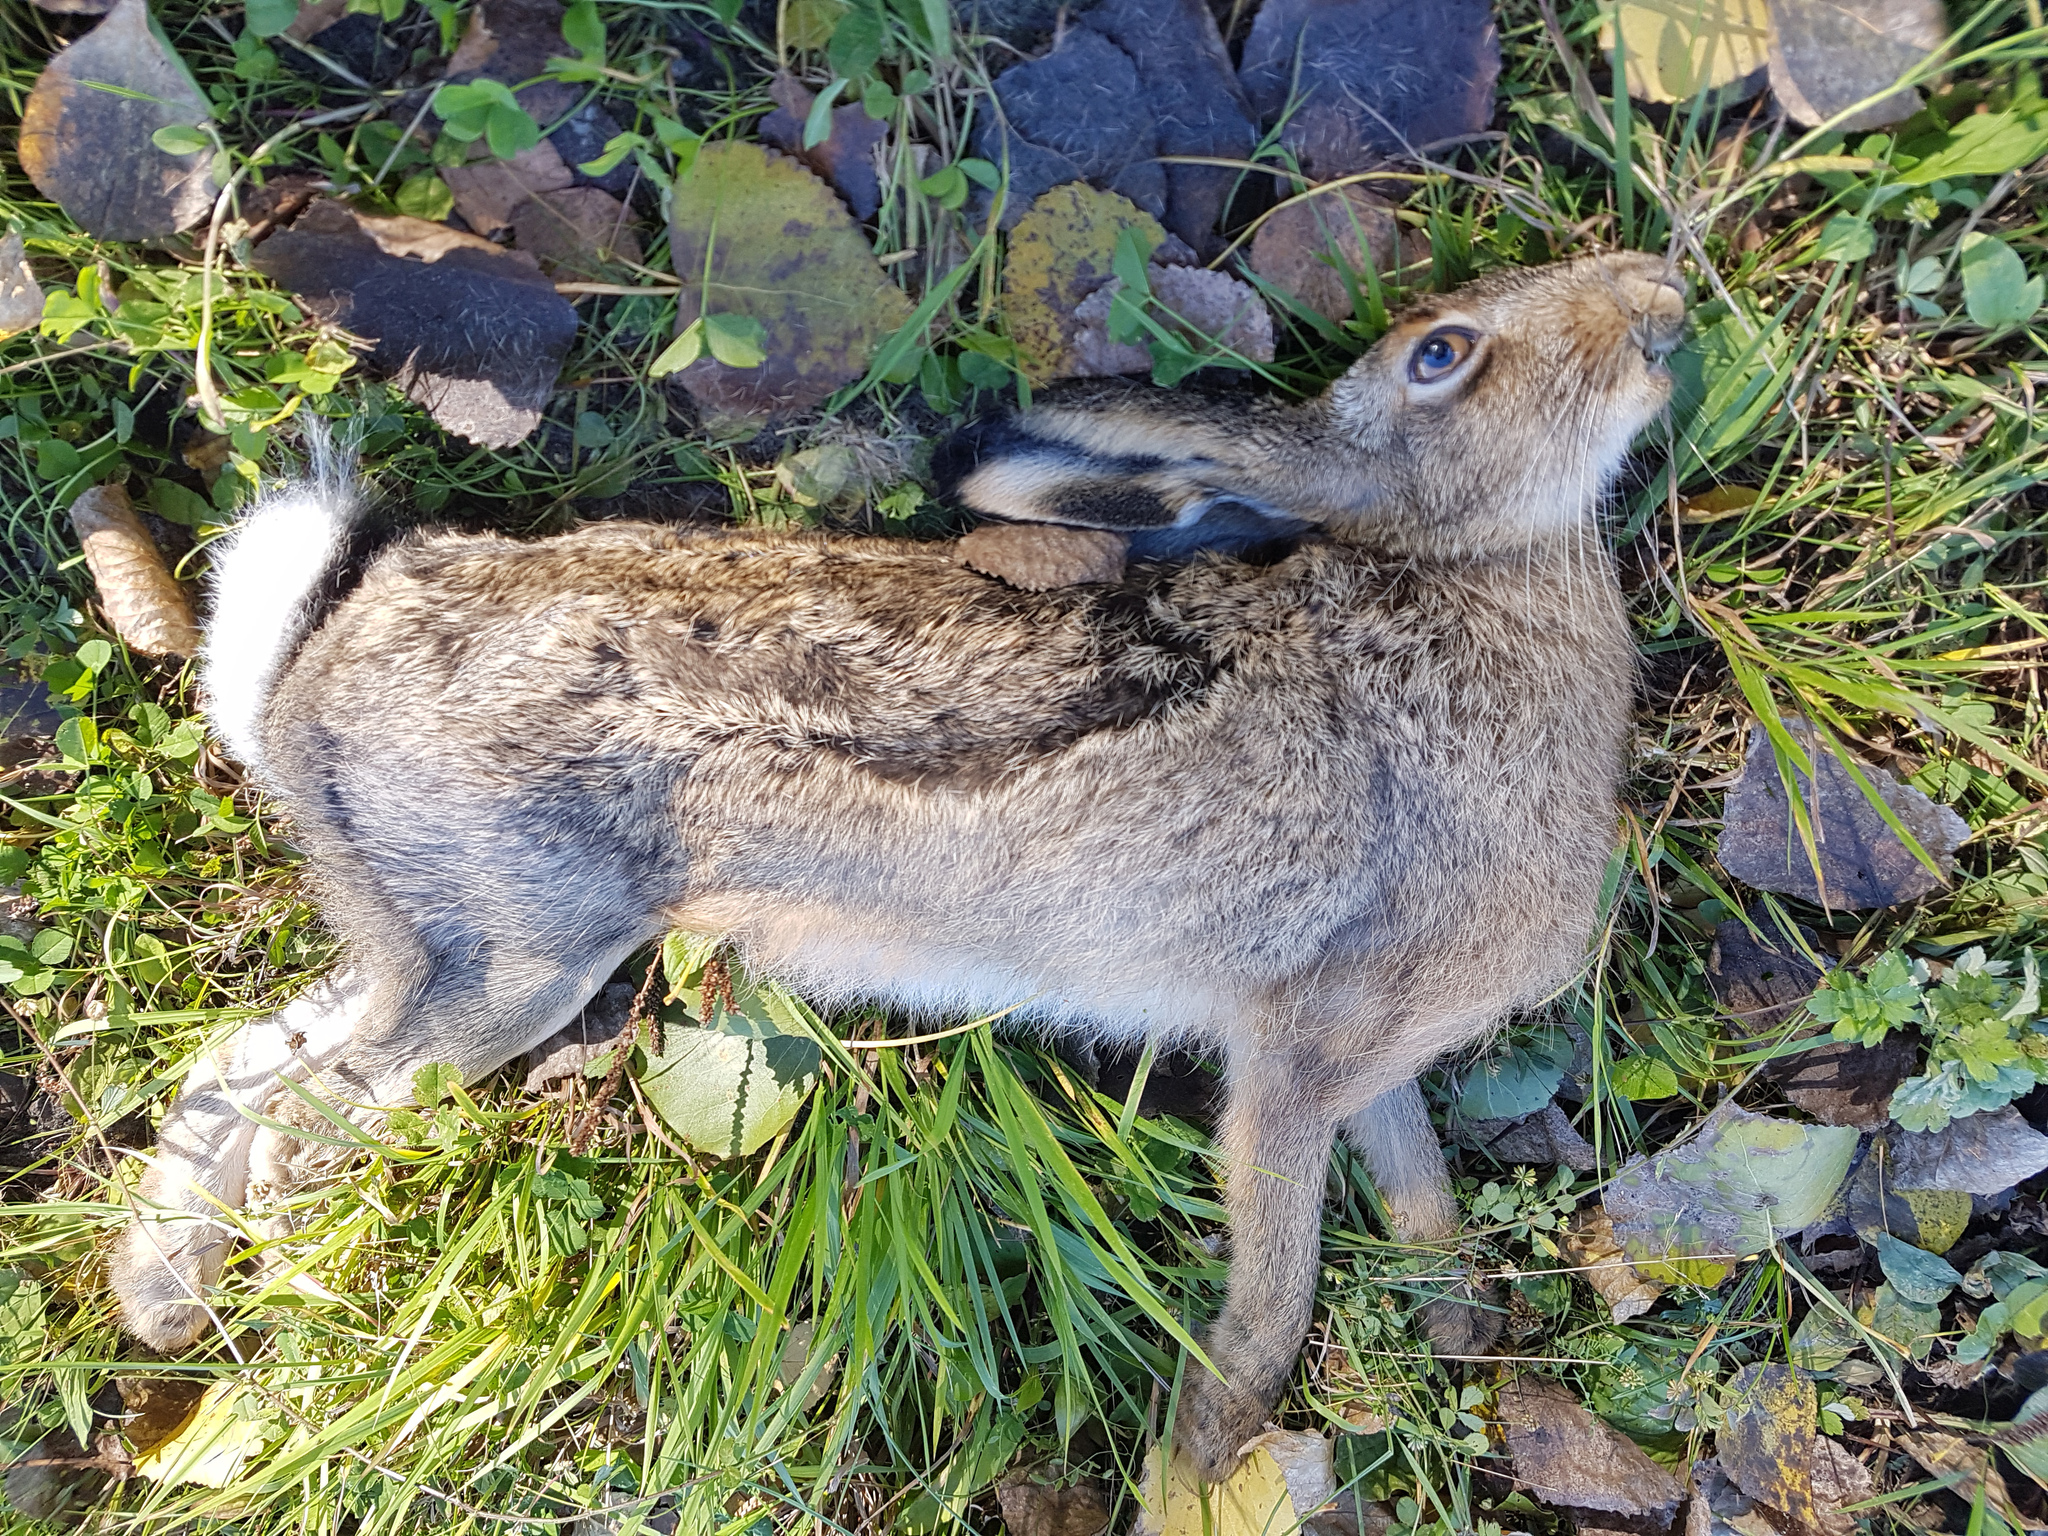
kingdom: Animalia
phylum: Chordata
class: Mammalia
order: Lagomorpha
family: Leporidae
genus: Lepus
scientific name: Lepus europaeus
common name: European hare
